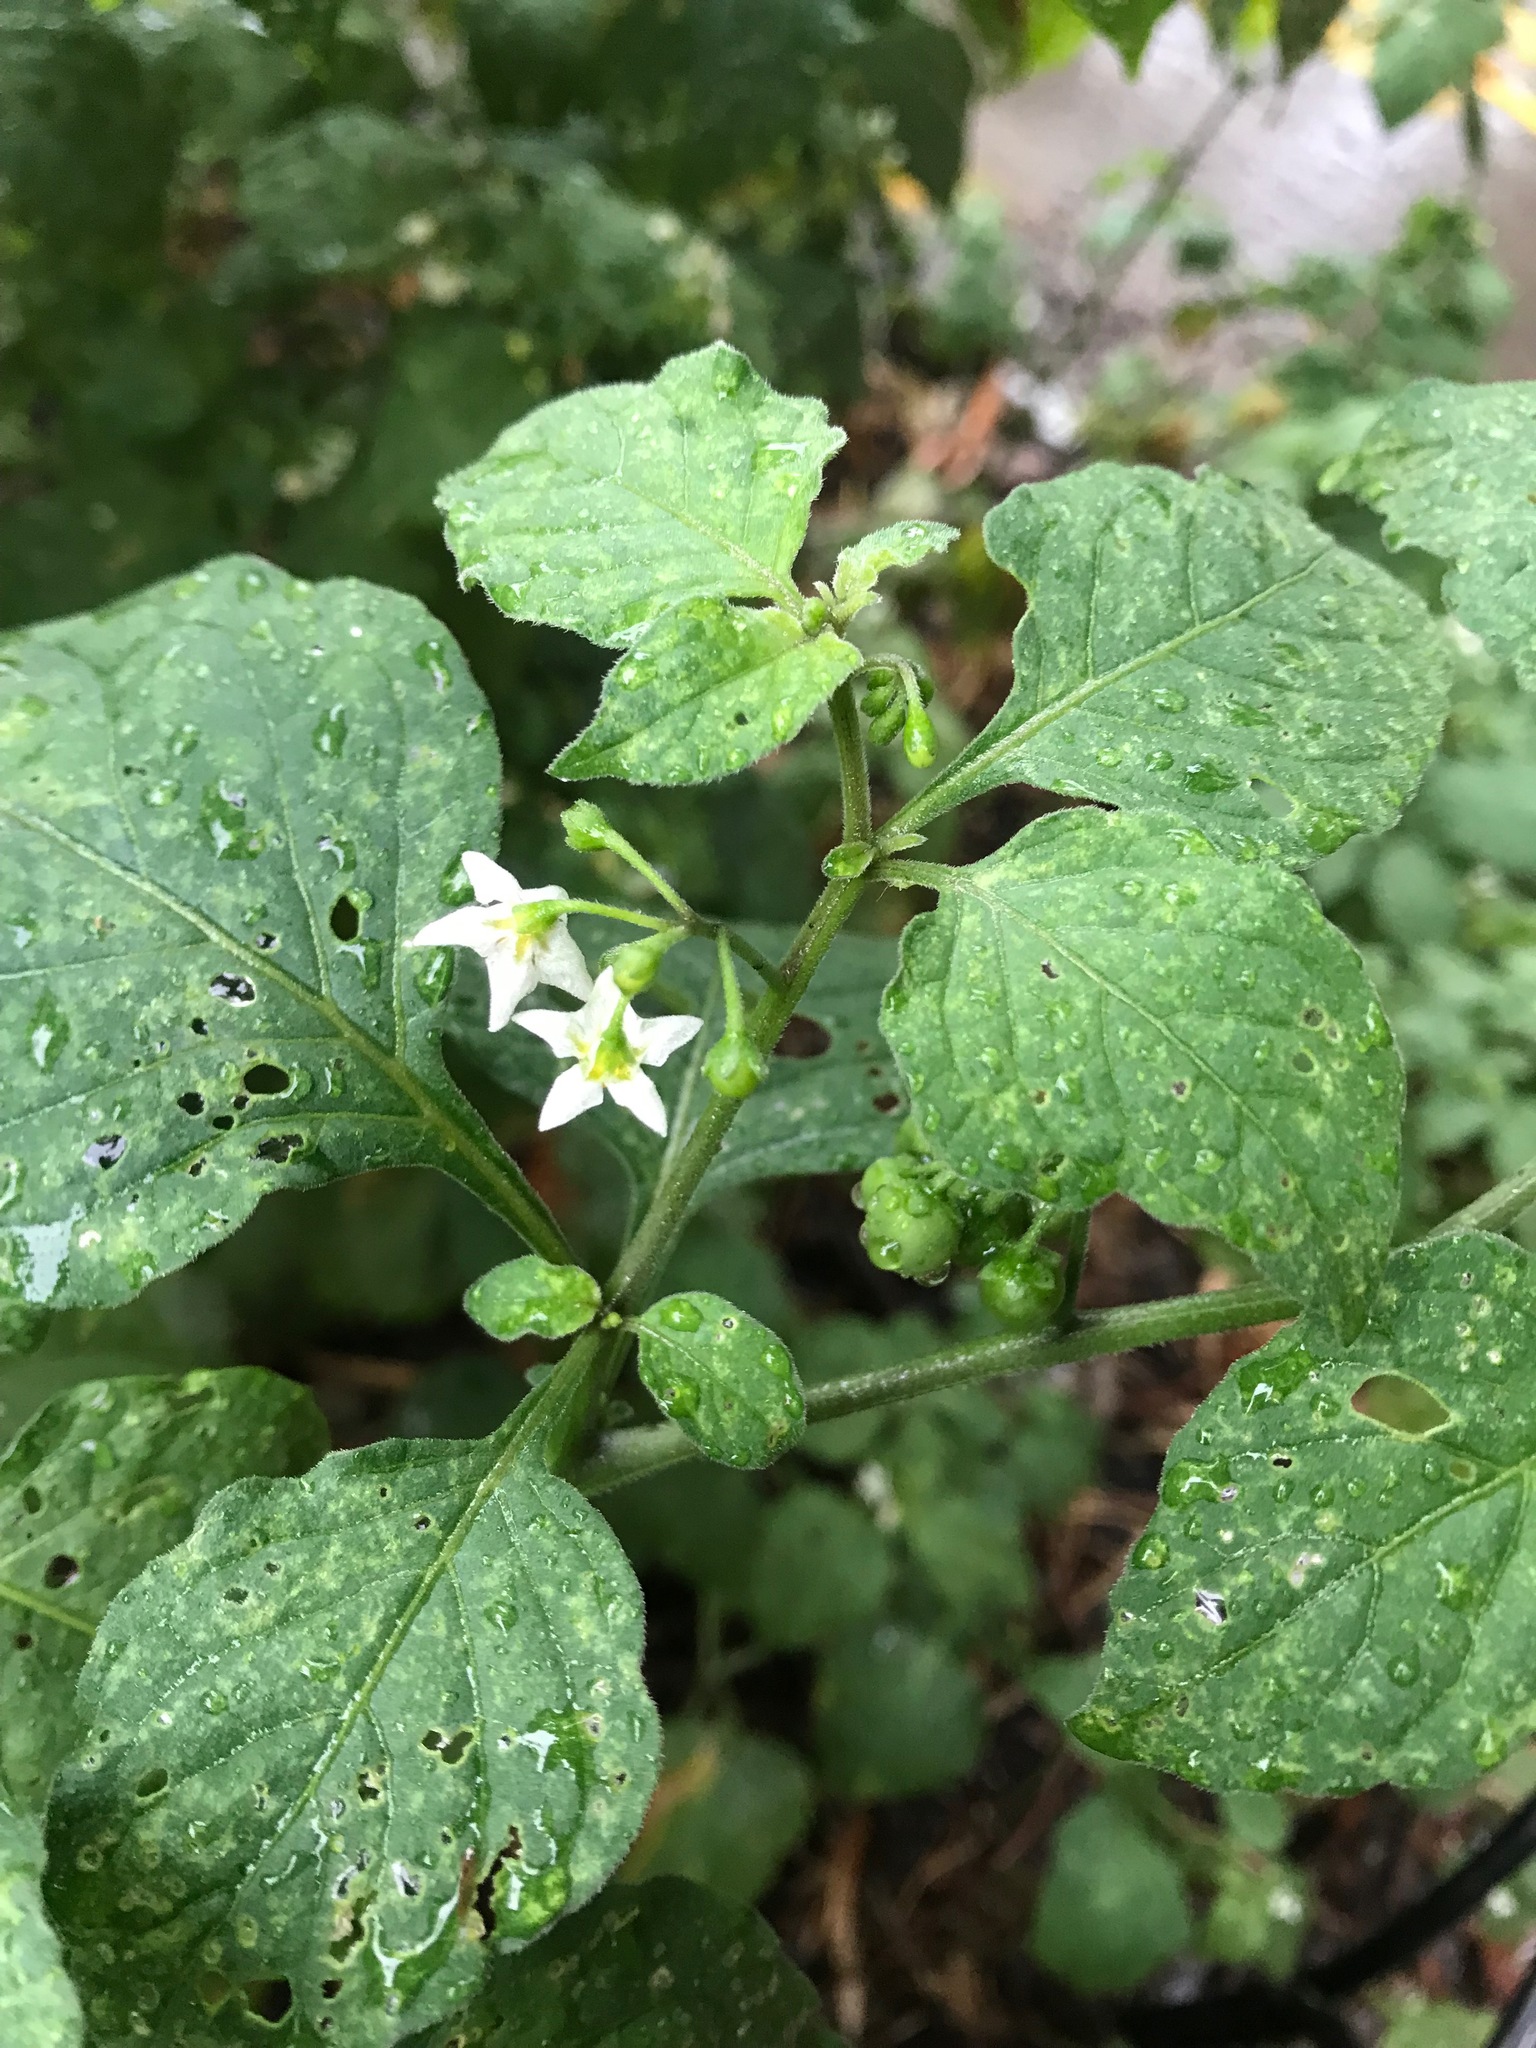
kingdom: Plantae
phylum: Tracheophyta
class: Magnoliopsida
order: Solanales
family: Solanaceae
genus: Solanum
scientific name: Solanum nigrum
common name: Black nightshade
